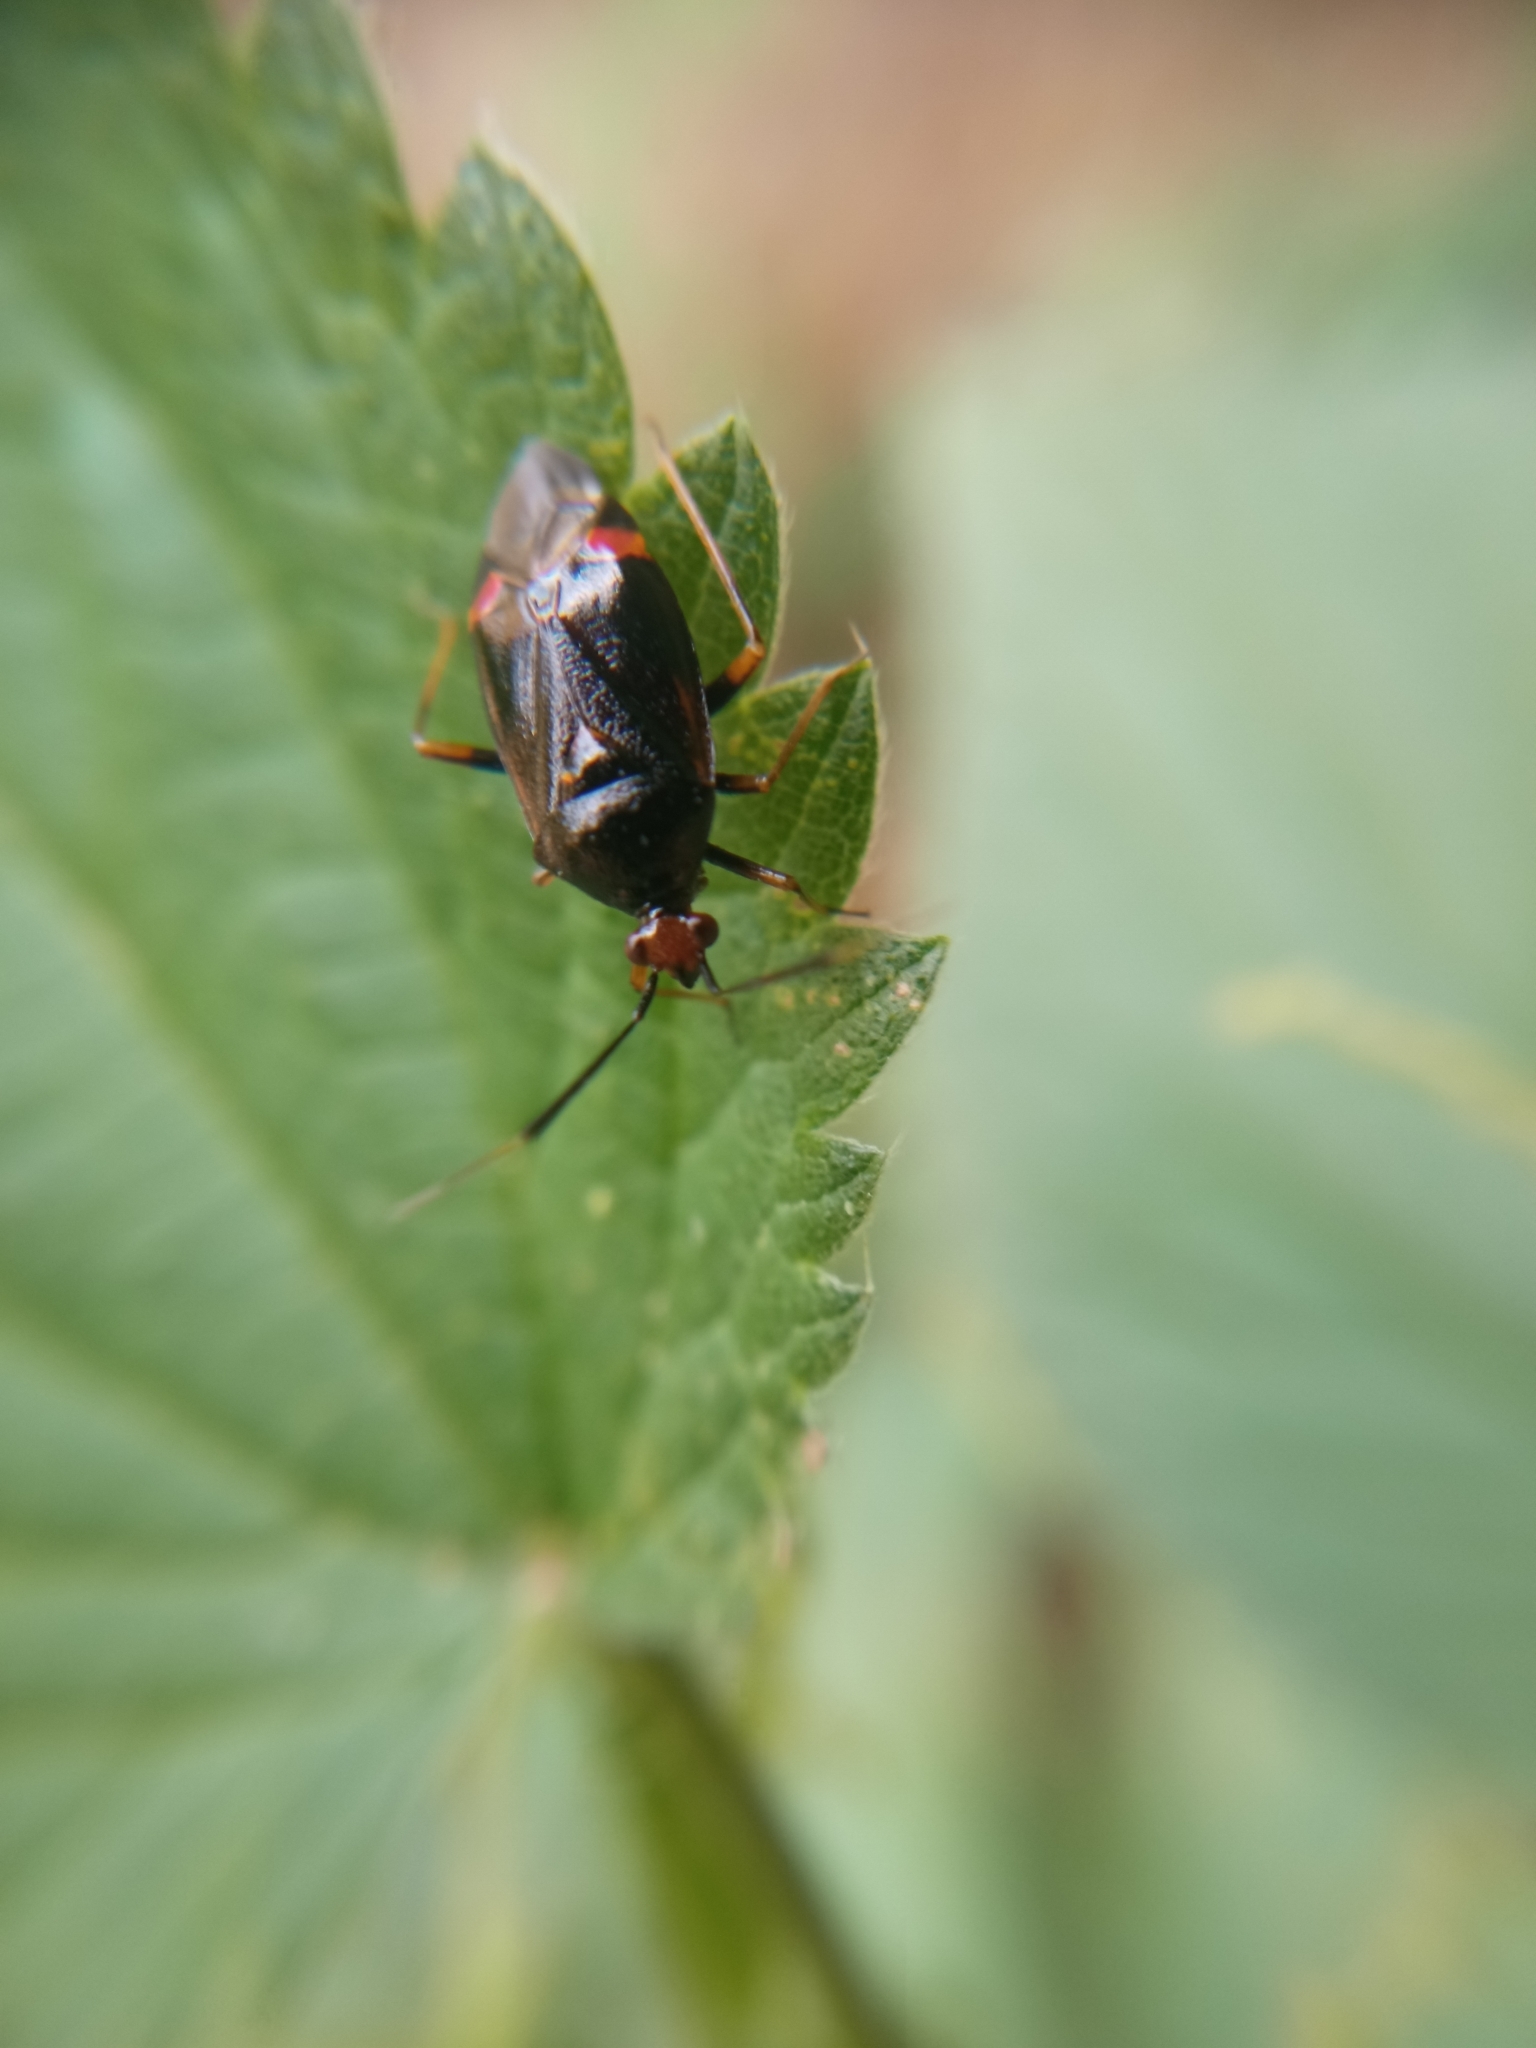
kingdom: Animalia
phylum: Arthropoda
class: Insecta
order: Hemiptera
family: Miridae
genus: Deraeocoris
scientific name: Deraeocoris ruber
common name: Plant bug
